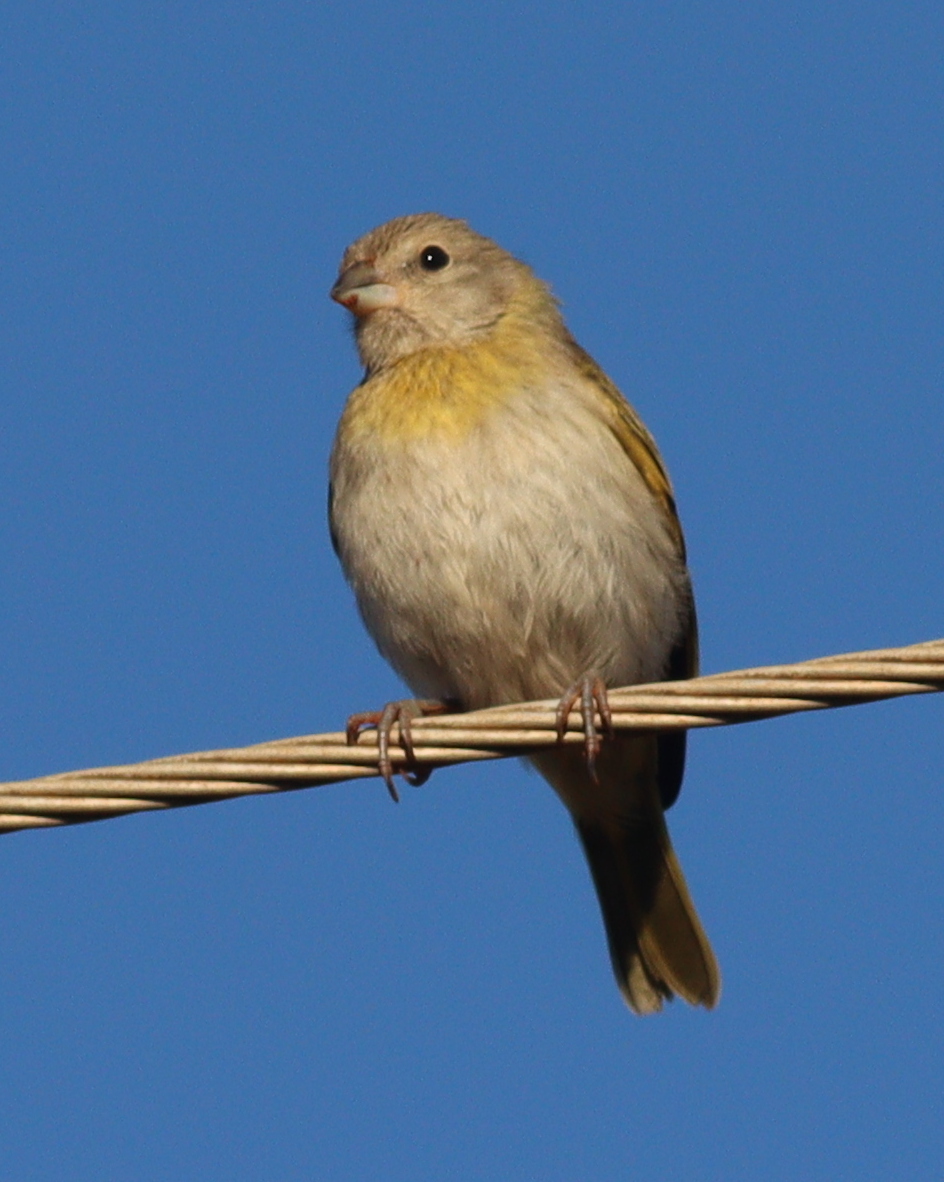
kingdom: Animalia
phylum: Chordata
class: Aves
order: Passeriformes
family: Thraupidae
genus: Sicalis
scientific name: Sicalis flaveola
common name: Saffron finch
